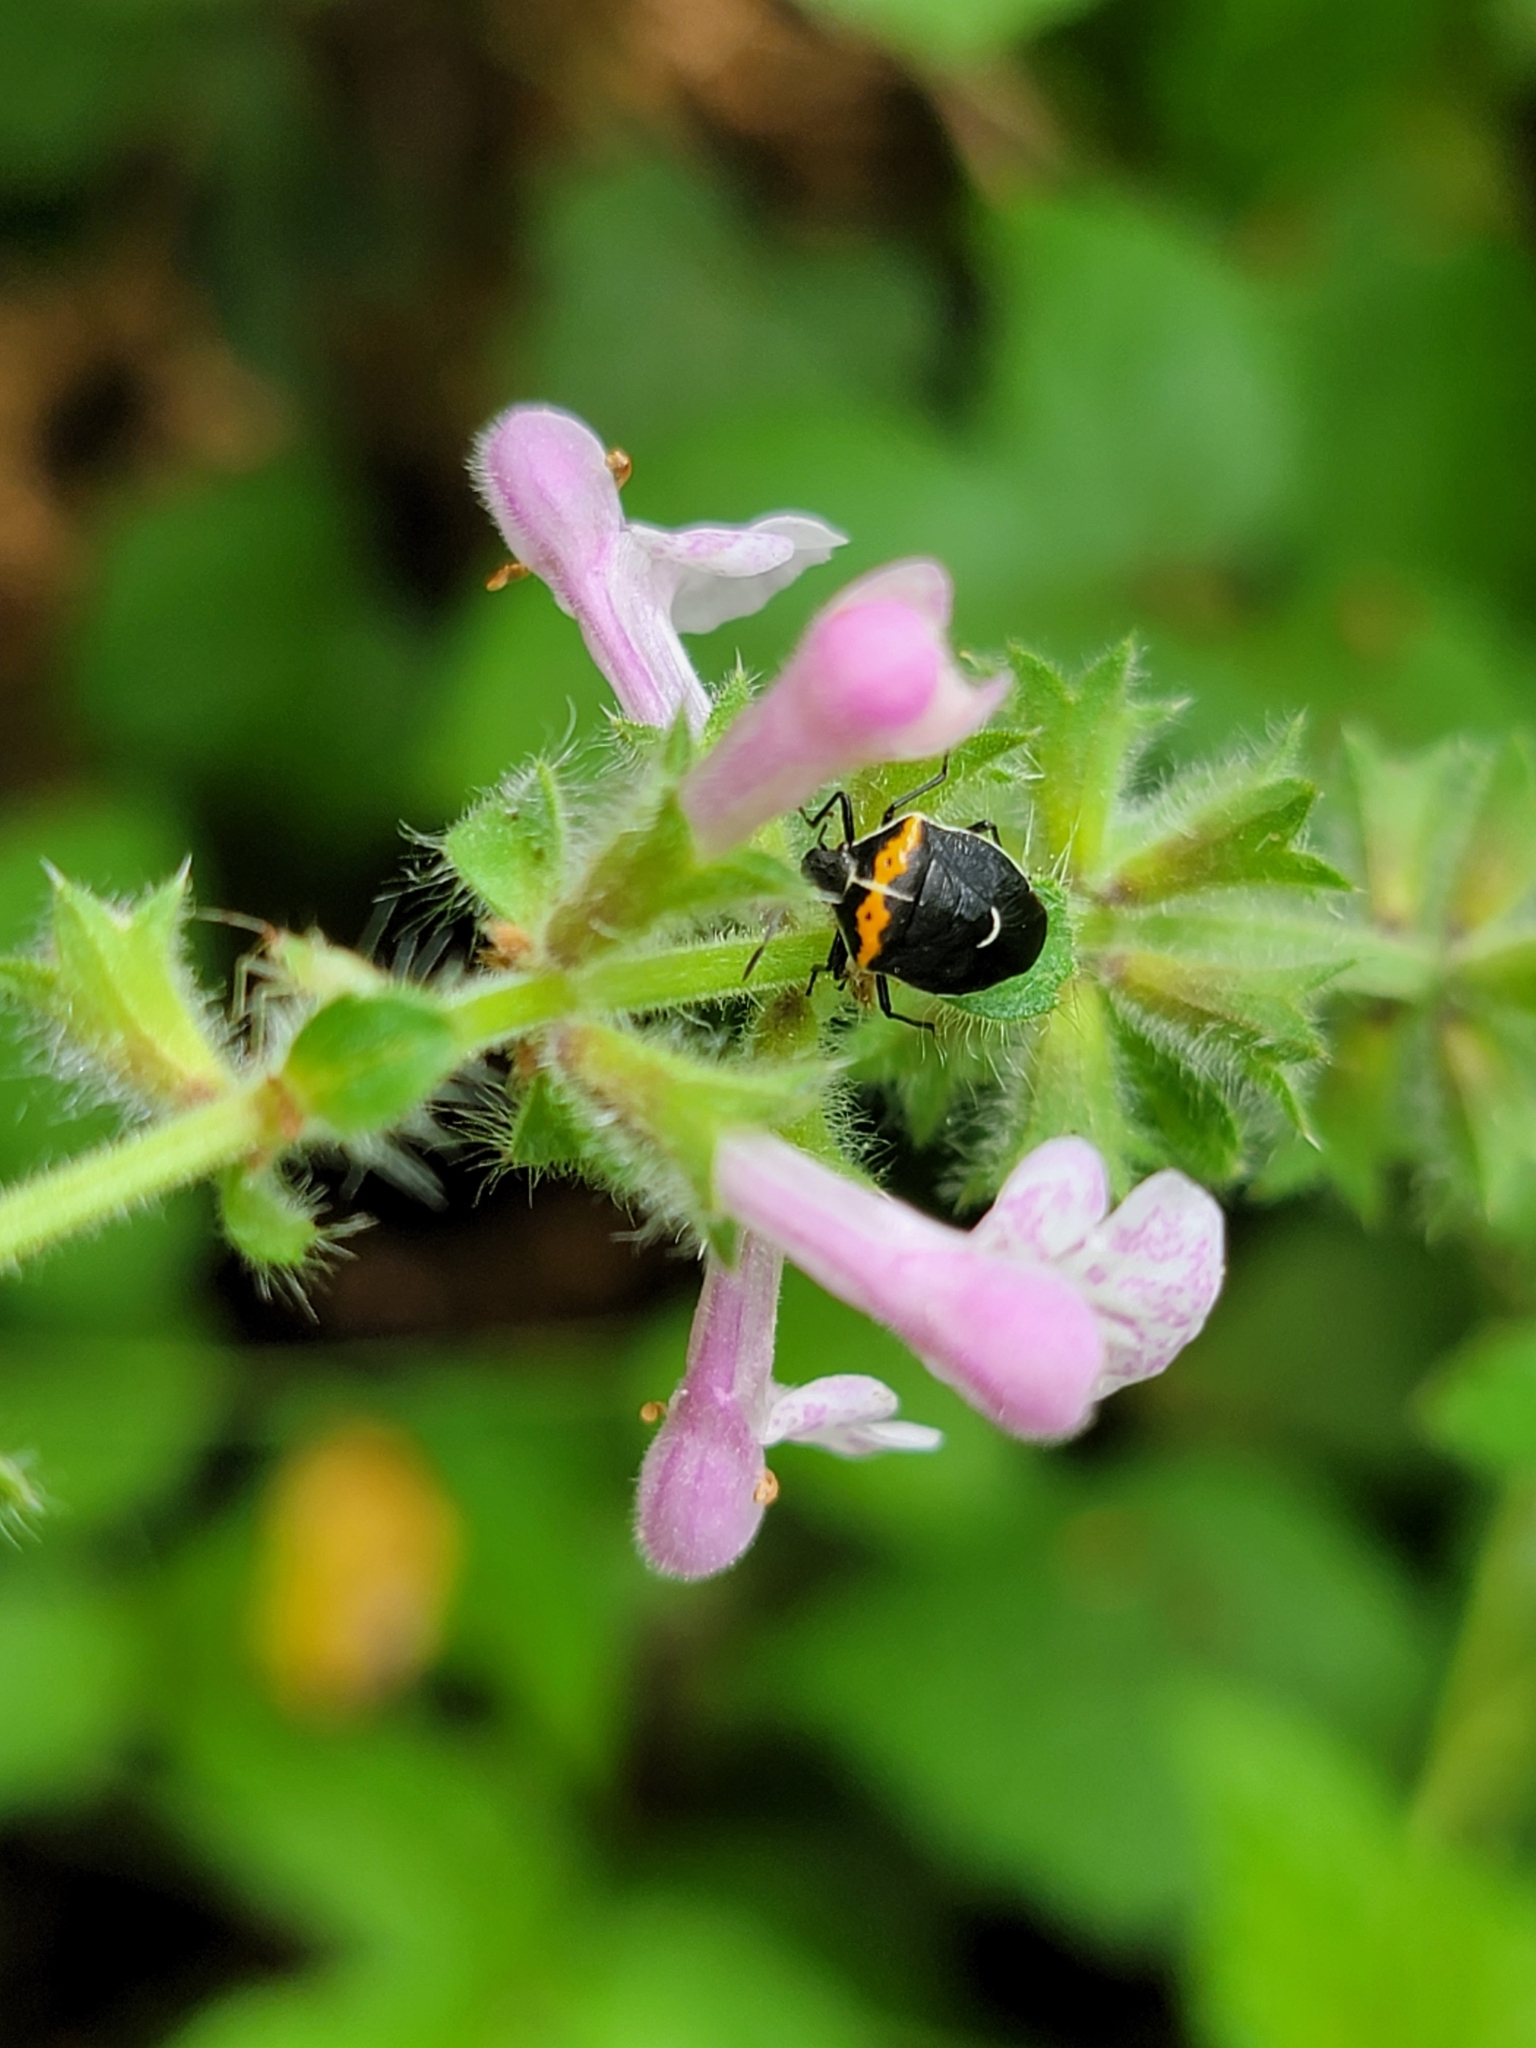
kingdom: Animalia
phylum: Arthropoda
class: Insecta
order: Hemiptera
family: Pentatomidae
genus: Cosmopepla
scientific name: Cosmopepla conspicillaris
